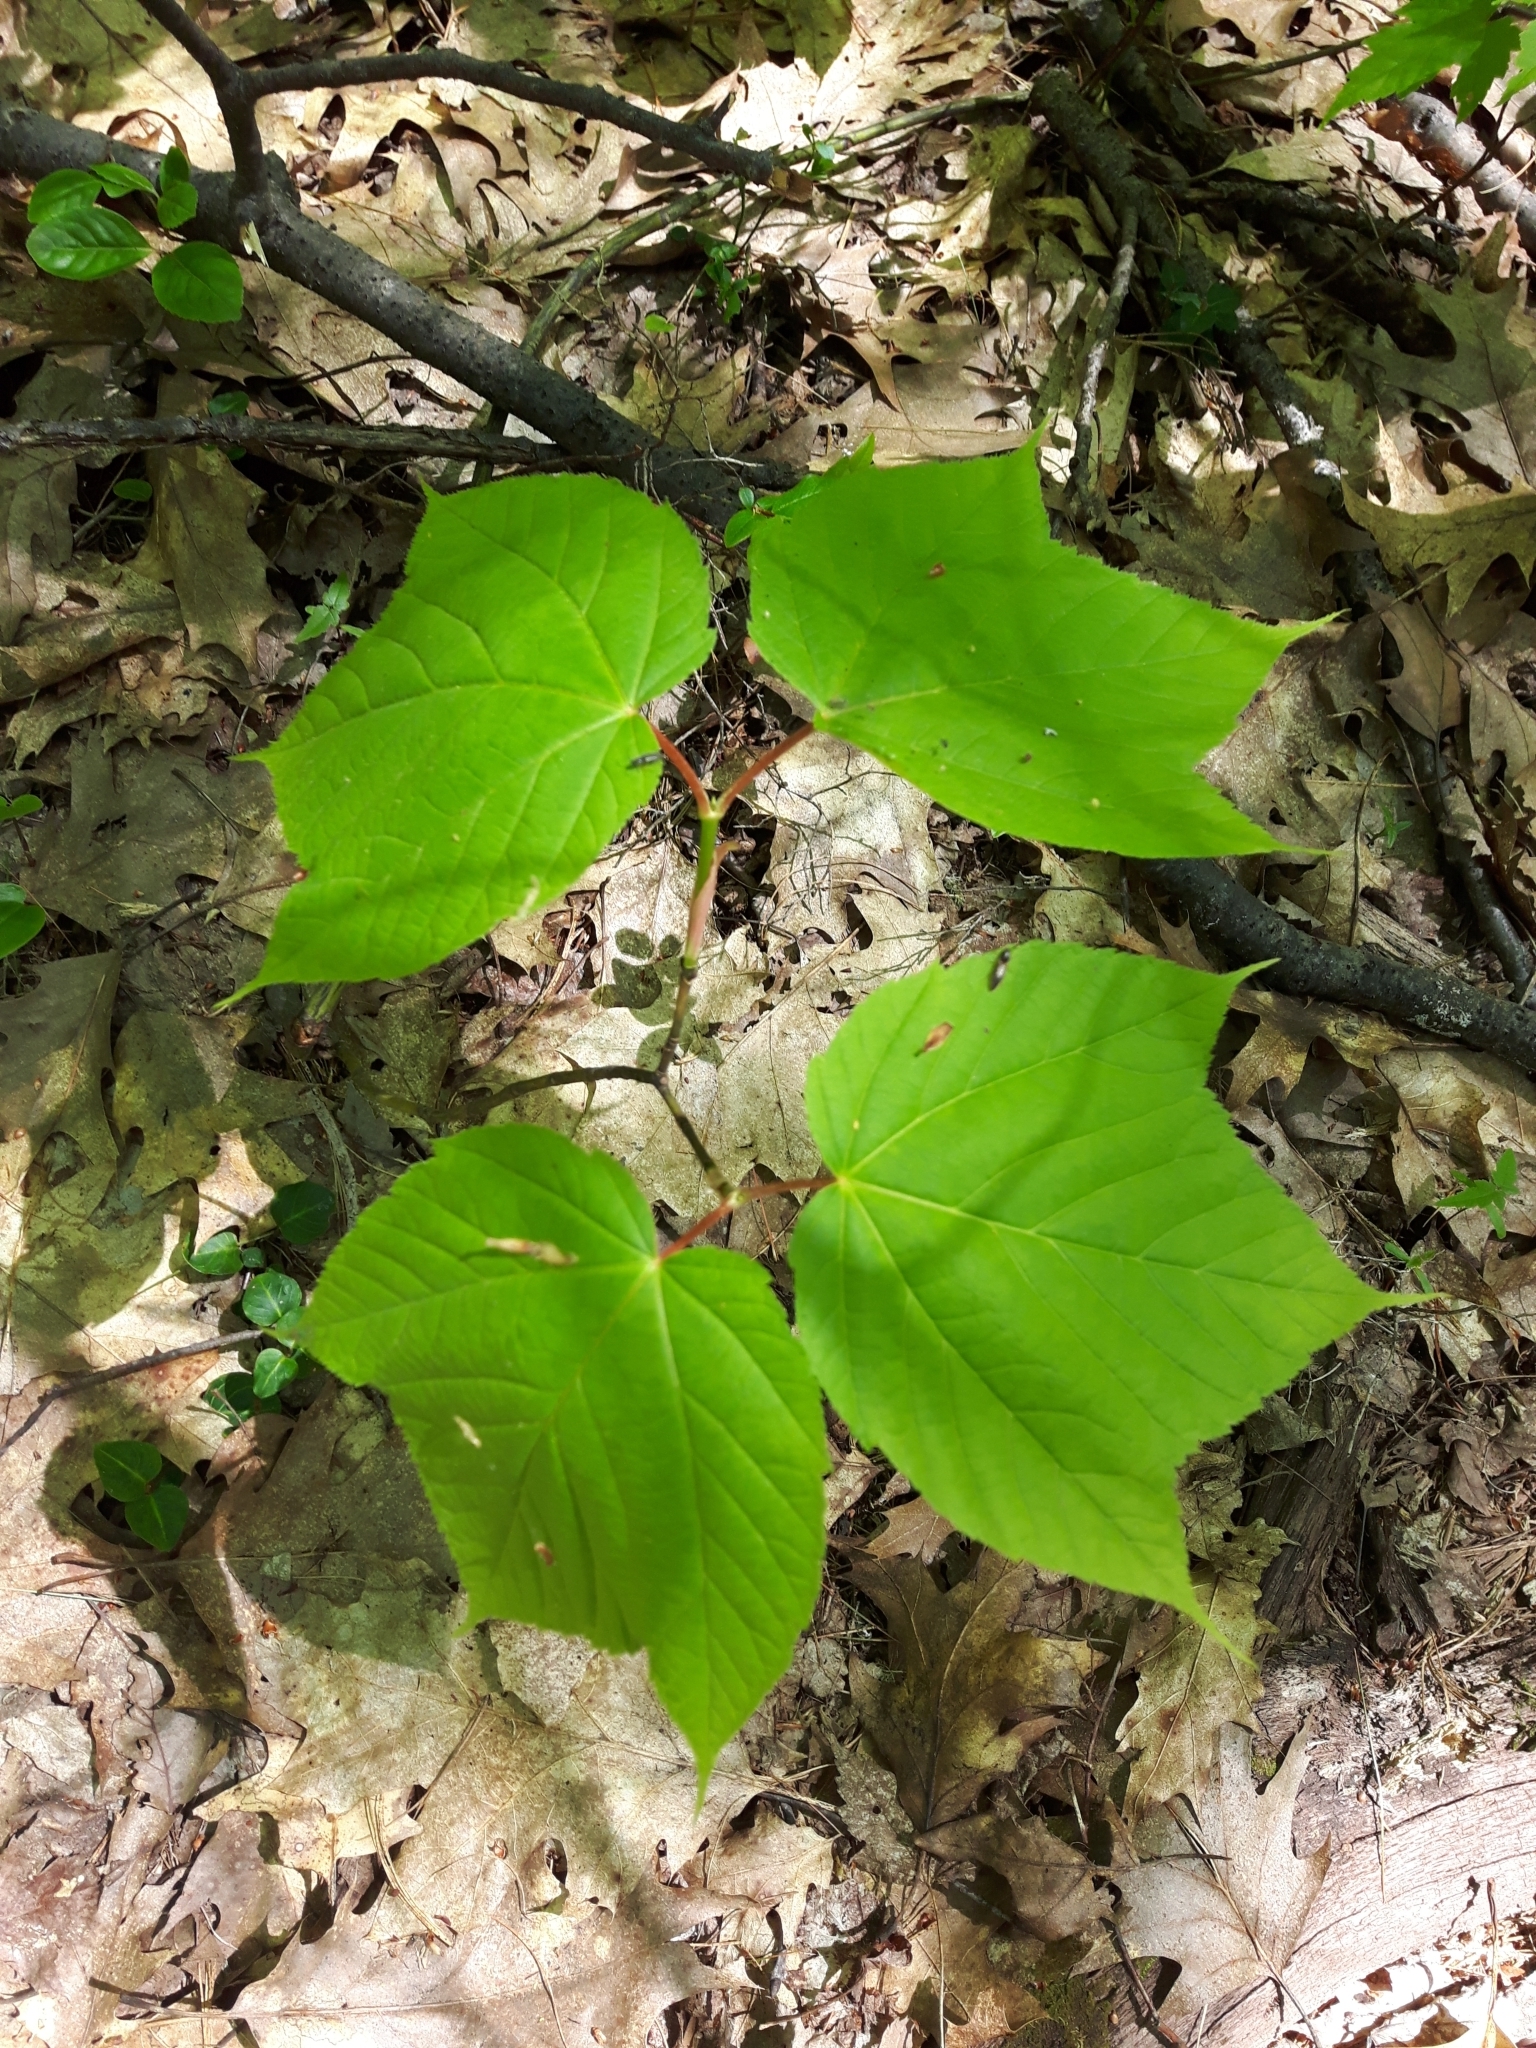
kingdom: Plantae
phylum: Tracheophyta
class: Magnoliopsida
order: Sapindales
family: Sapindaceae
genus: Acer
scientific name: Acer pensylvanicum
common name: Moosewood
